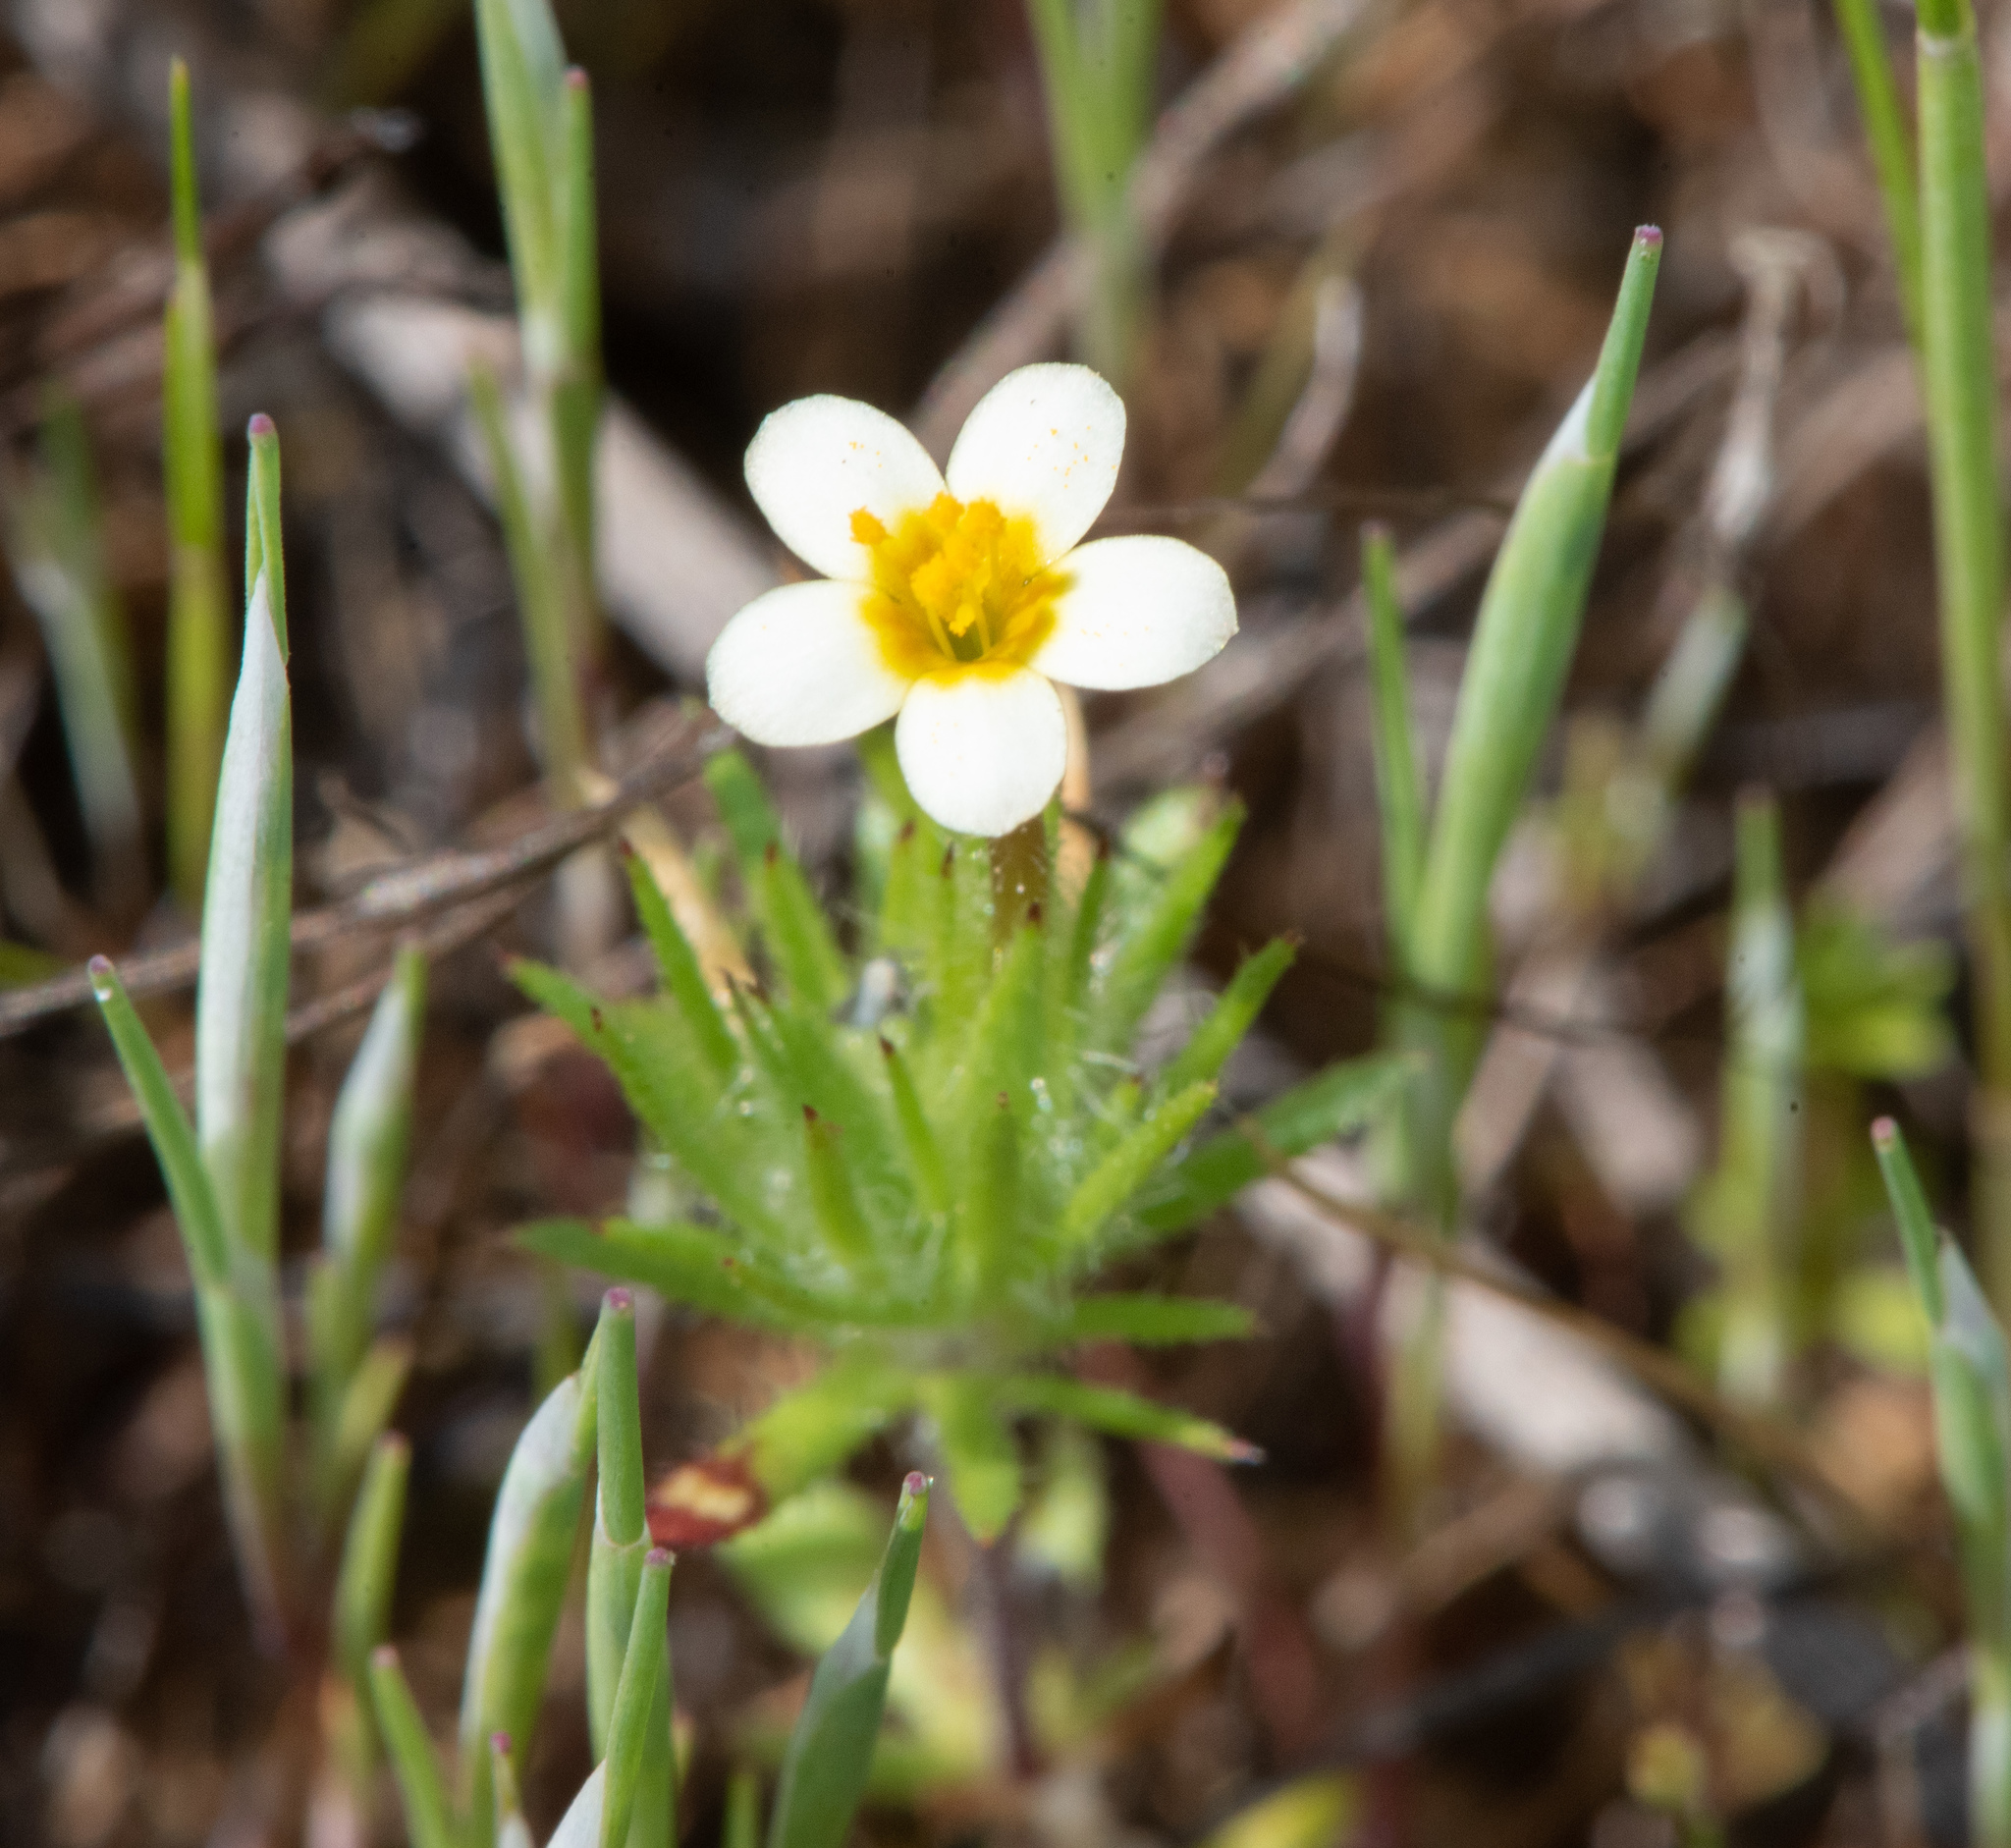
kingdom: Plantae
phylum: Tracheophyta
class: Magnoliopsida
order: Ericales
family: Polemoniaceae
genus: Leptosiphon
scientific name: Leptosiphon bicolor
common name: True babystars
